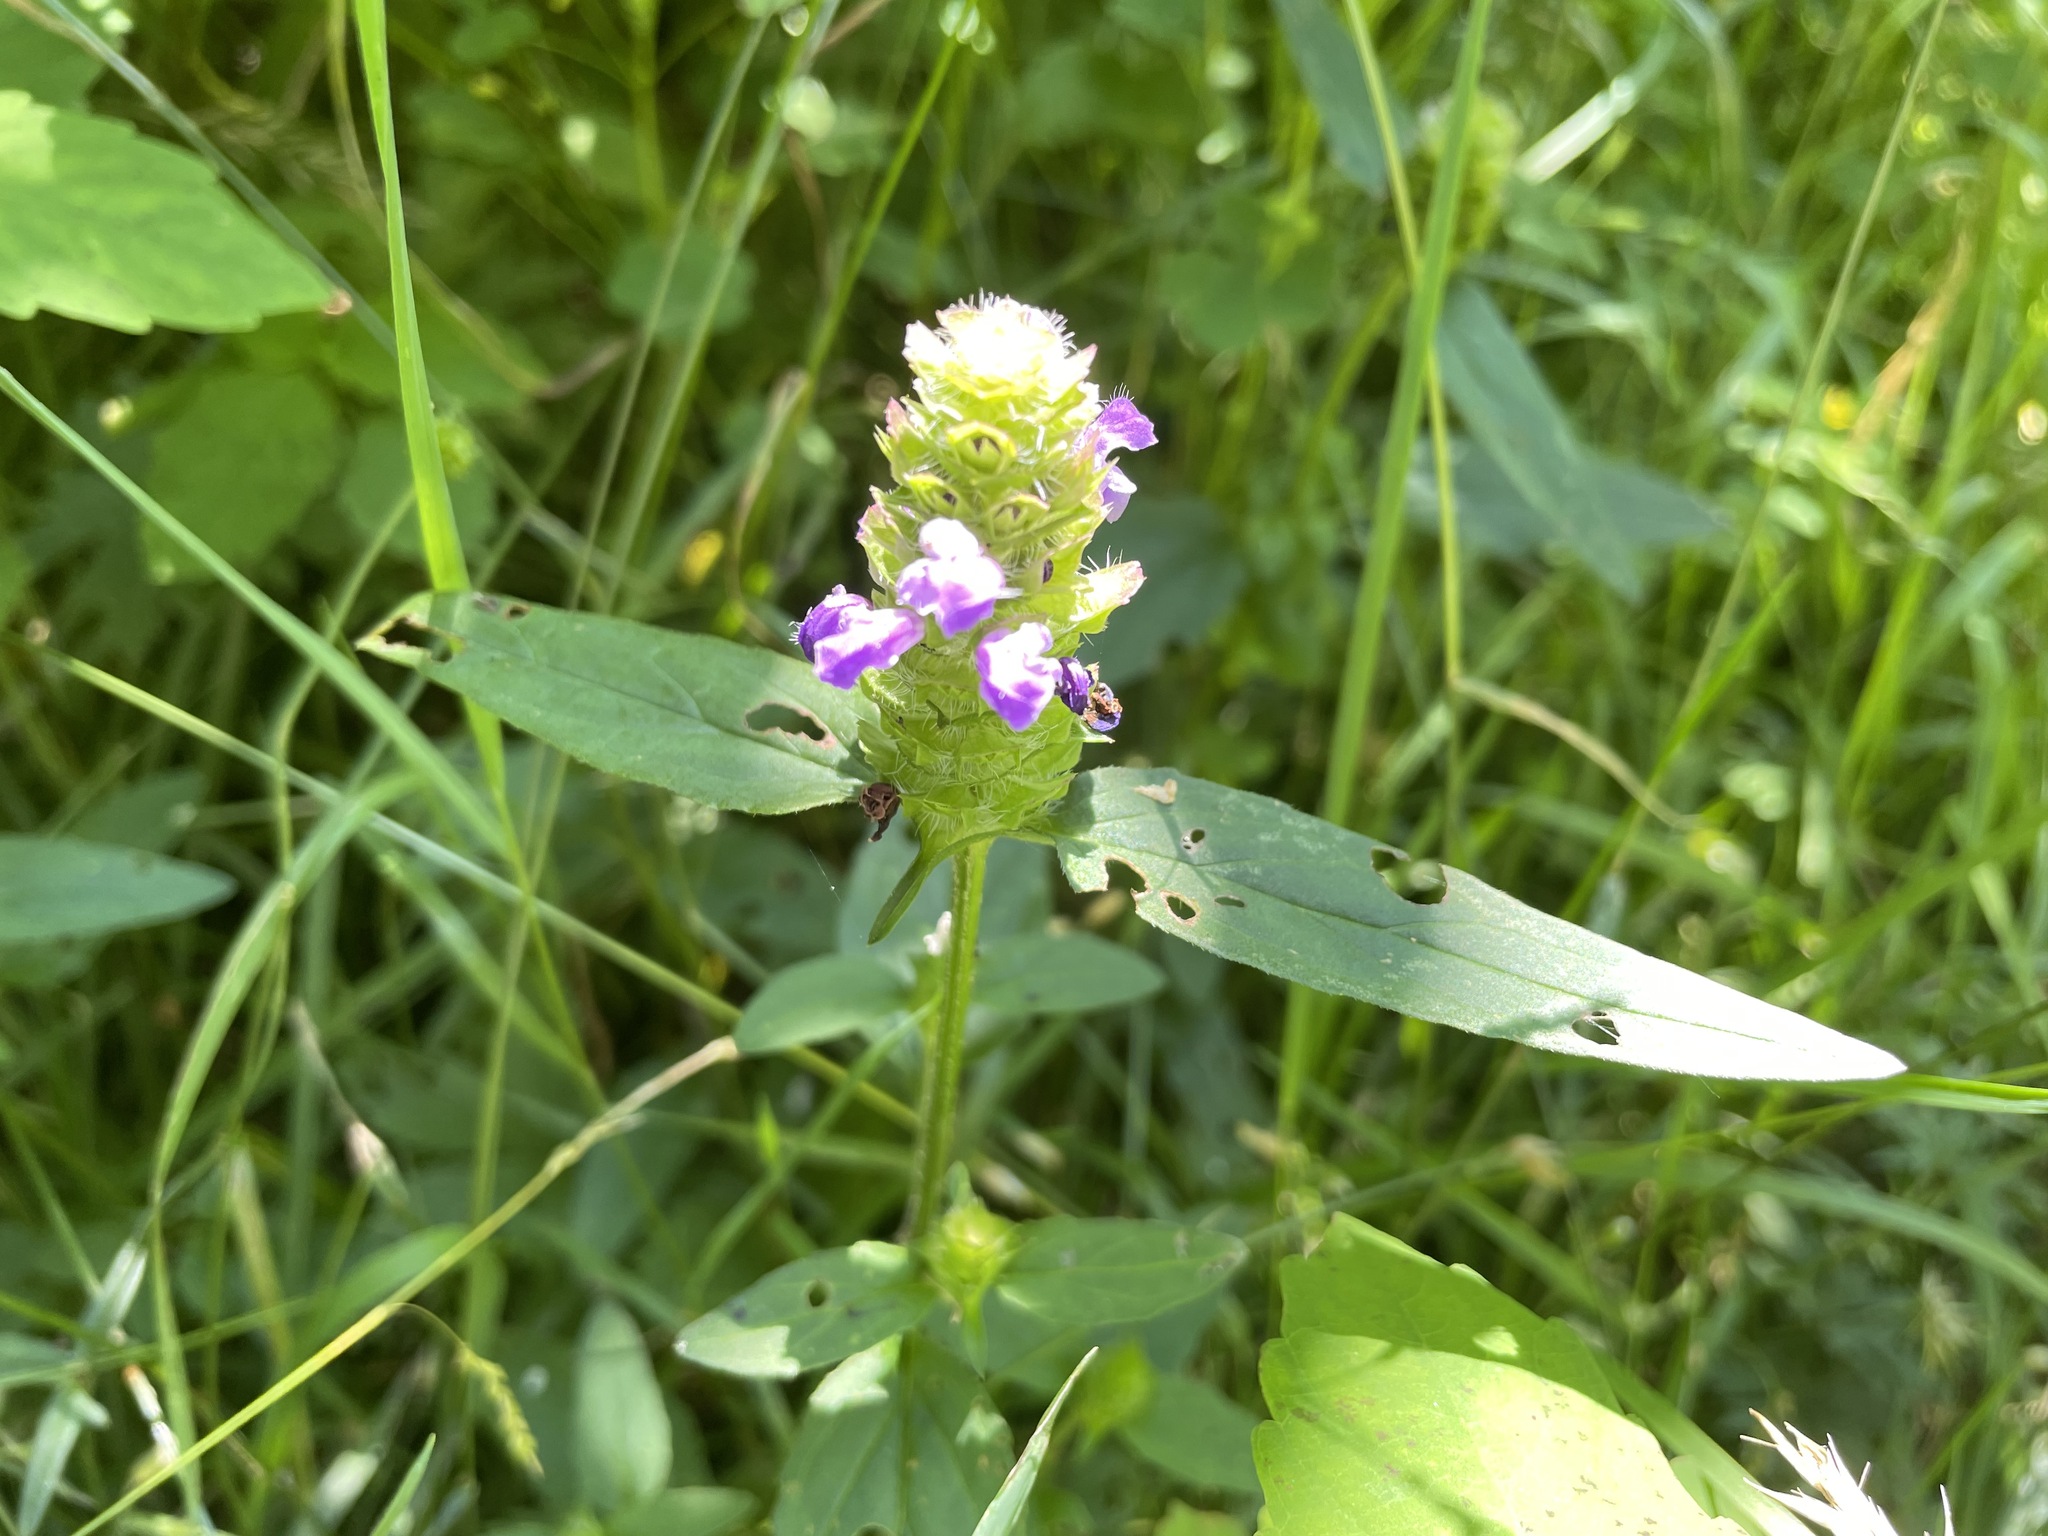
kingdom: Plantae
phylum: Tracheophyta
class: Magnoliopsida
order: Lamiales
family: Lamiaceae
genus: Prunella
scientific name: Prunella vulgaris
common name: Heal-all
